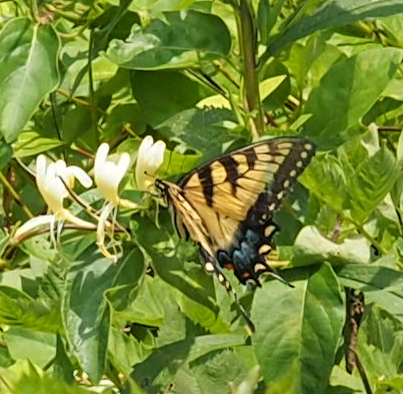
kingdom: Animalia
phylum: Arthropoda
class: Insecta
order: Lepidoptera
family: Papilionidae
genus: Papilio
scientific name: Papilio glaucus
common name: Tiger swallowtail
